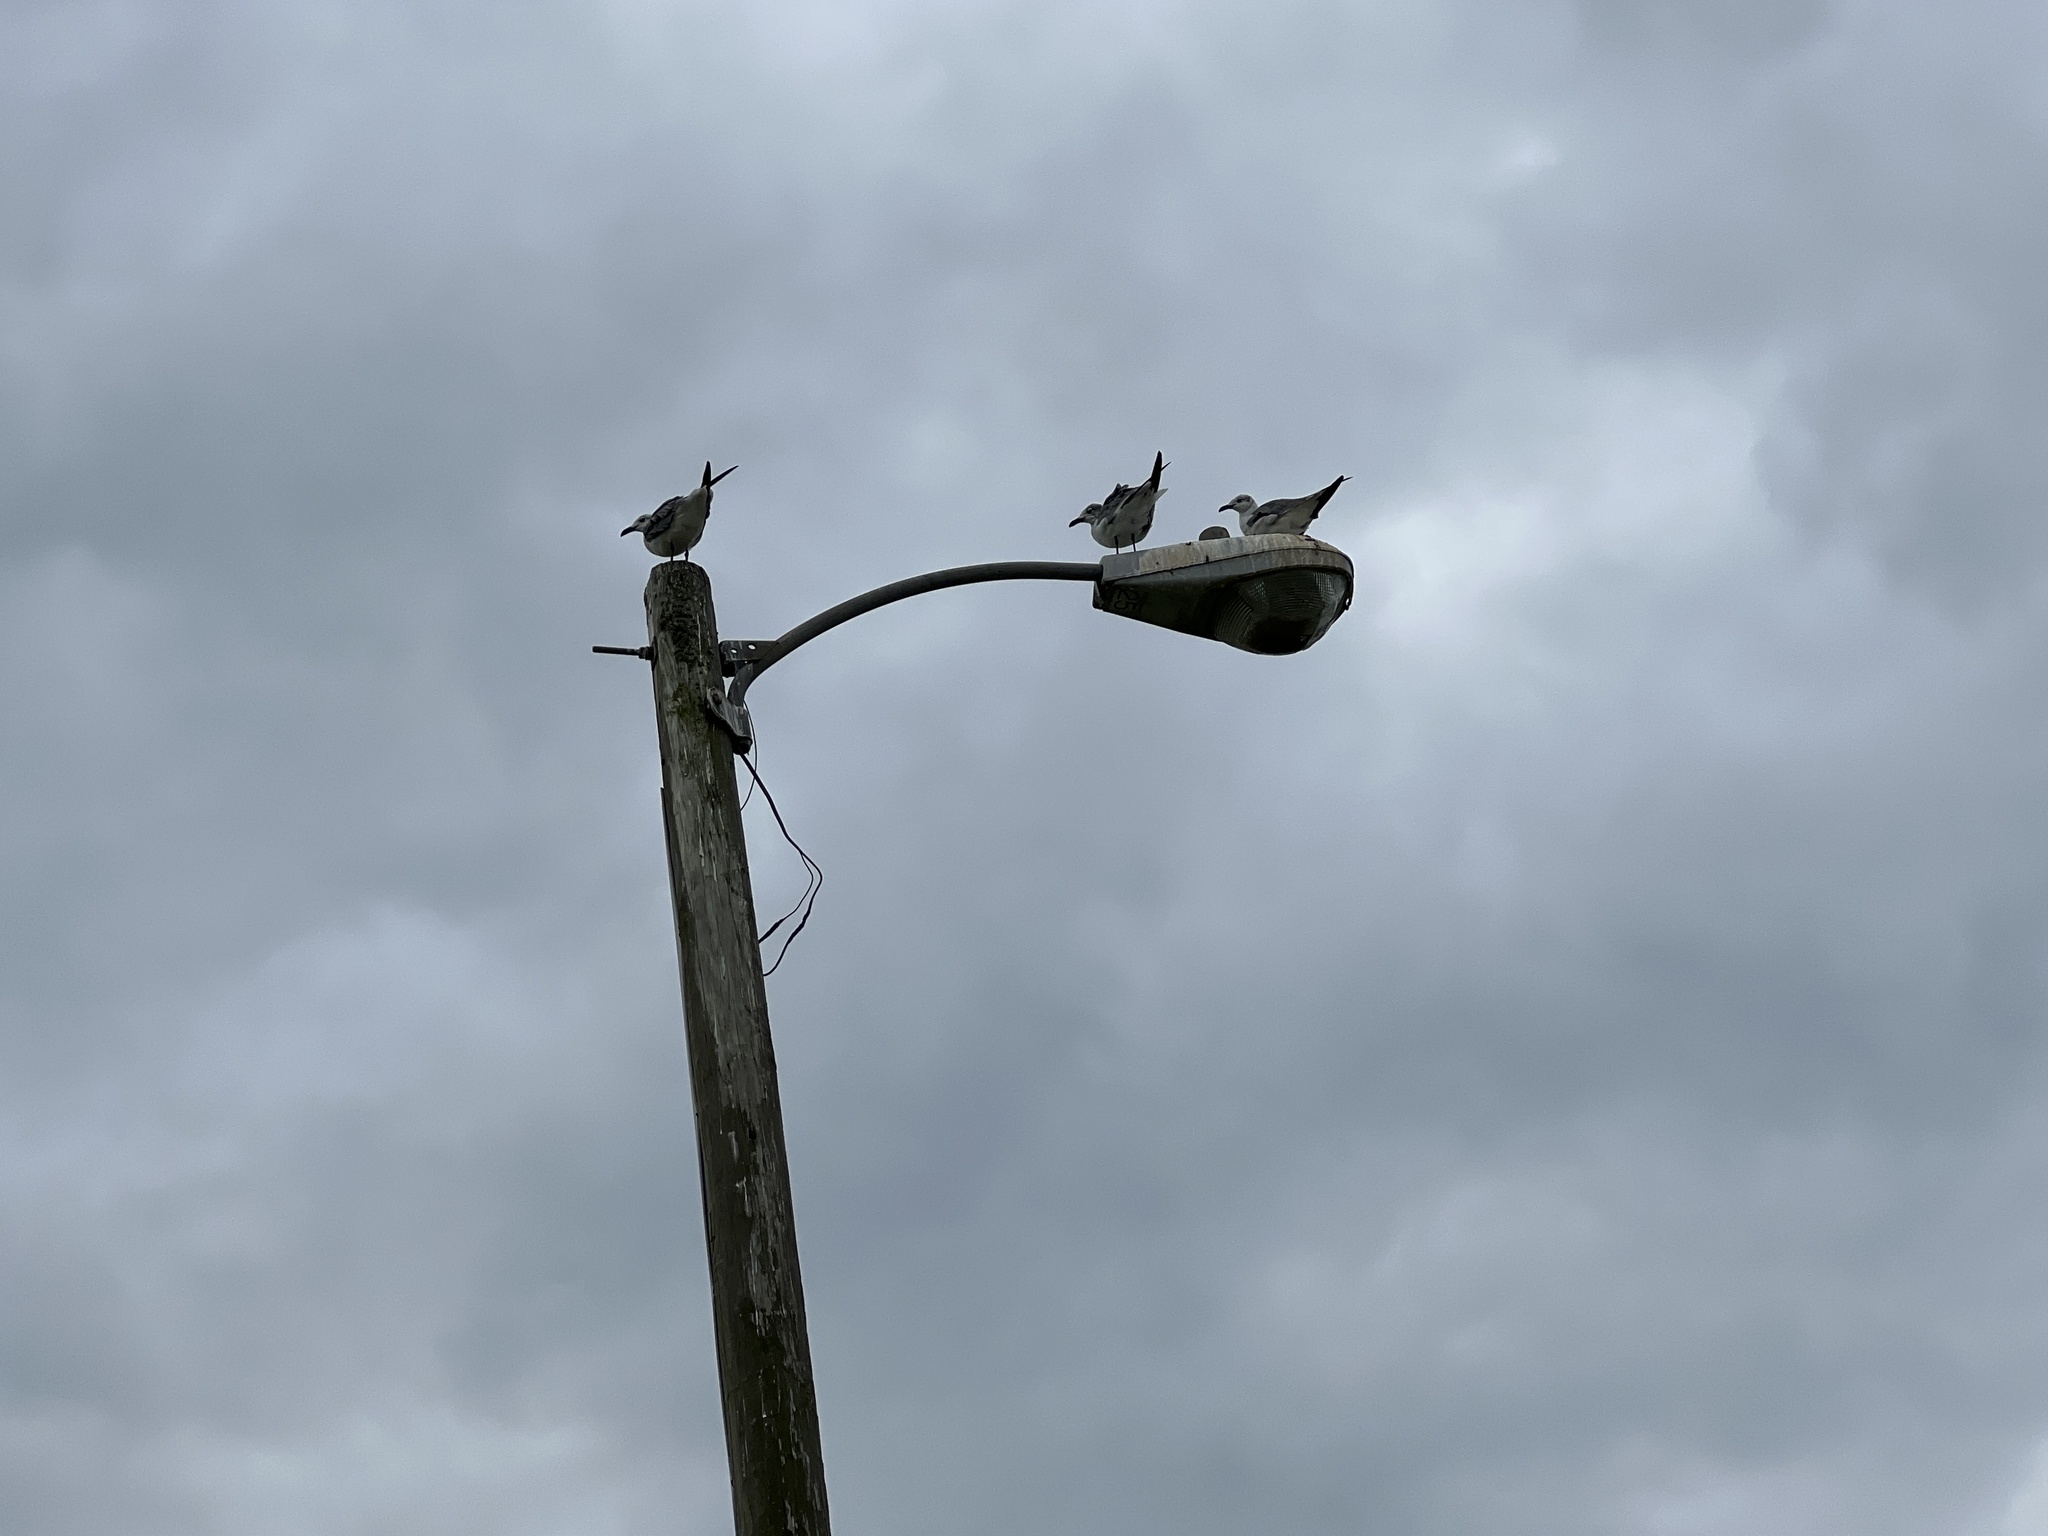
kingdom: Animalia
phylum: Chordata
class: Aves
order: Charadriiformes
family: Laridae
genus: Leucophaeus
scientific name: Leucophaeus atricilla
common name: Laughing gull
